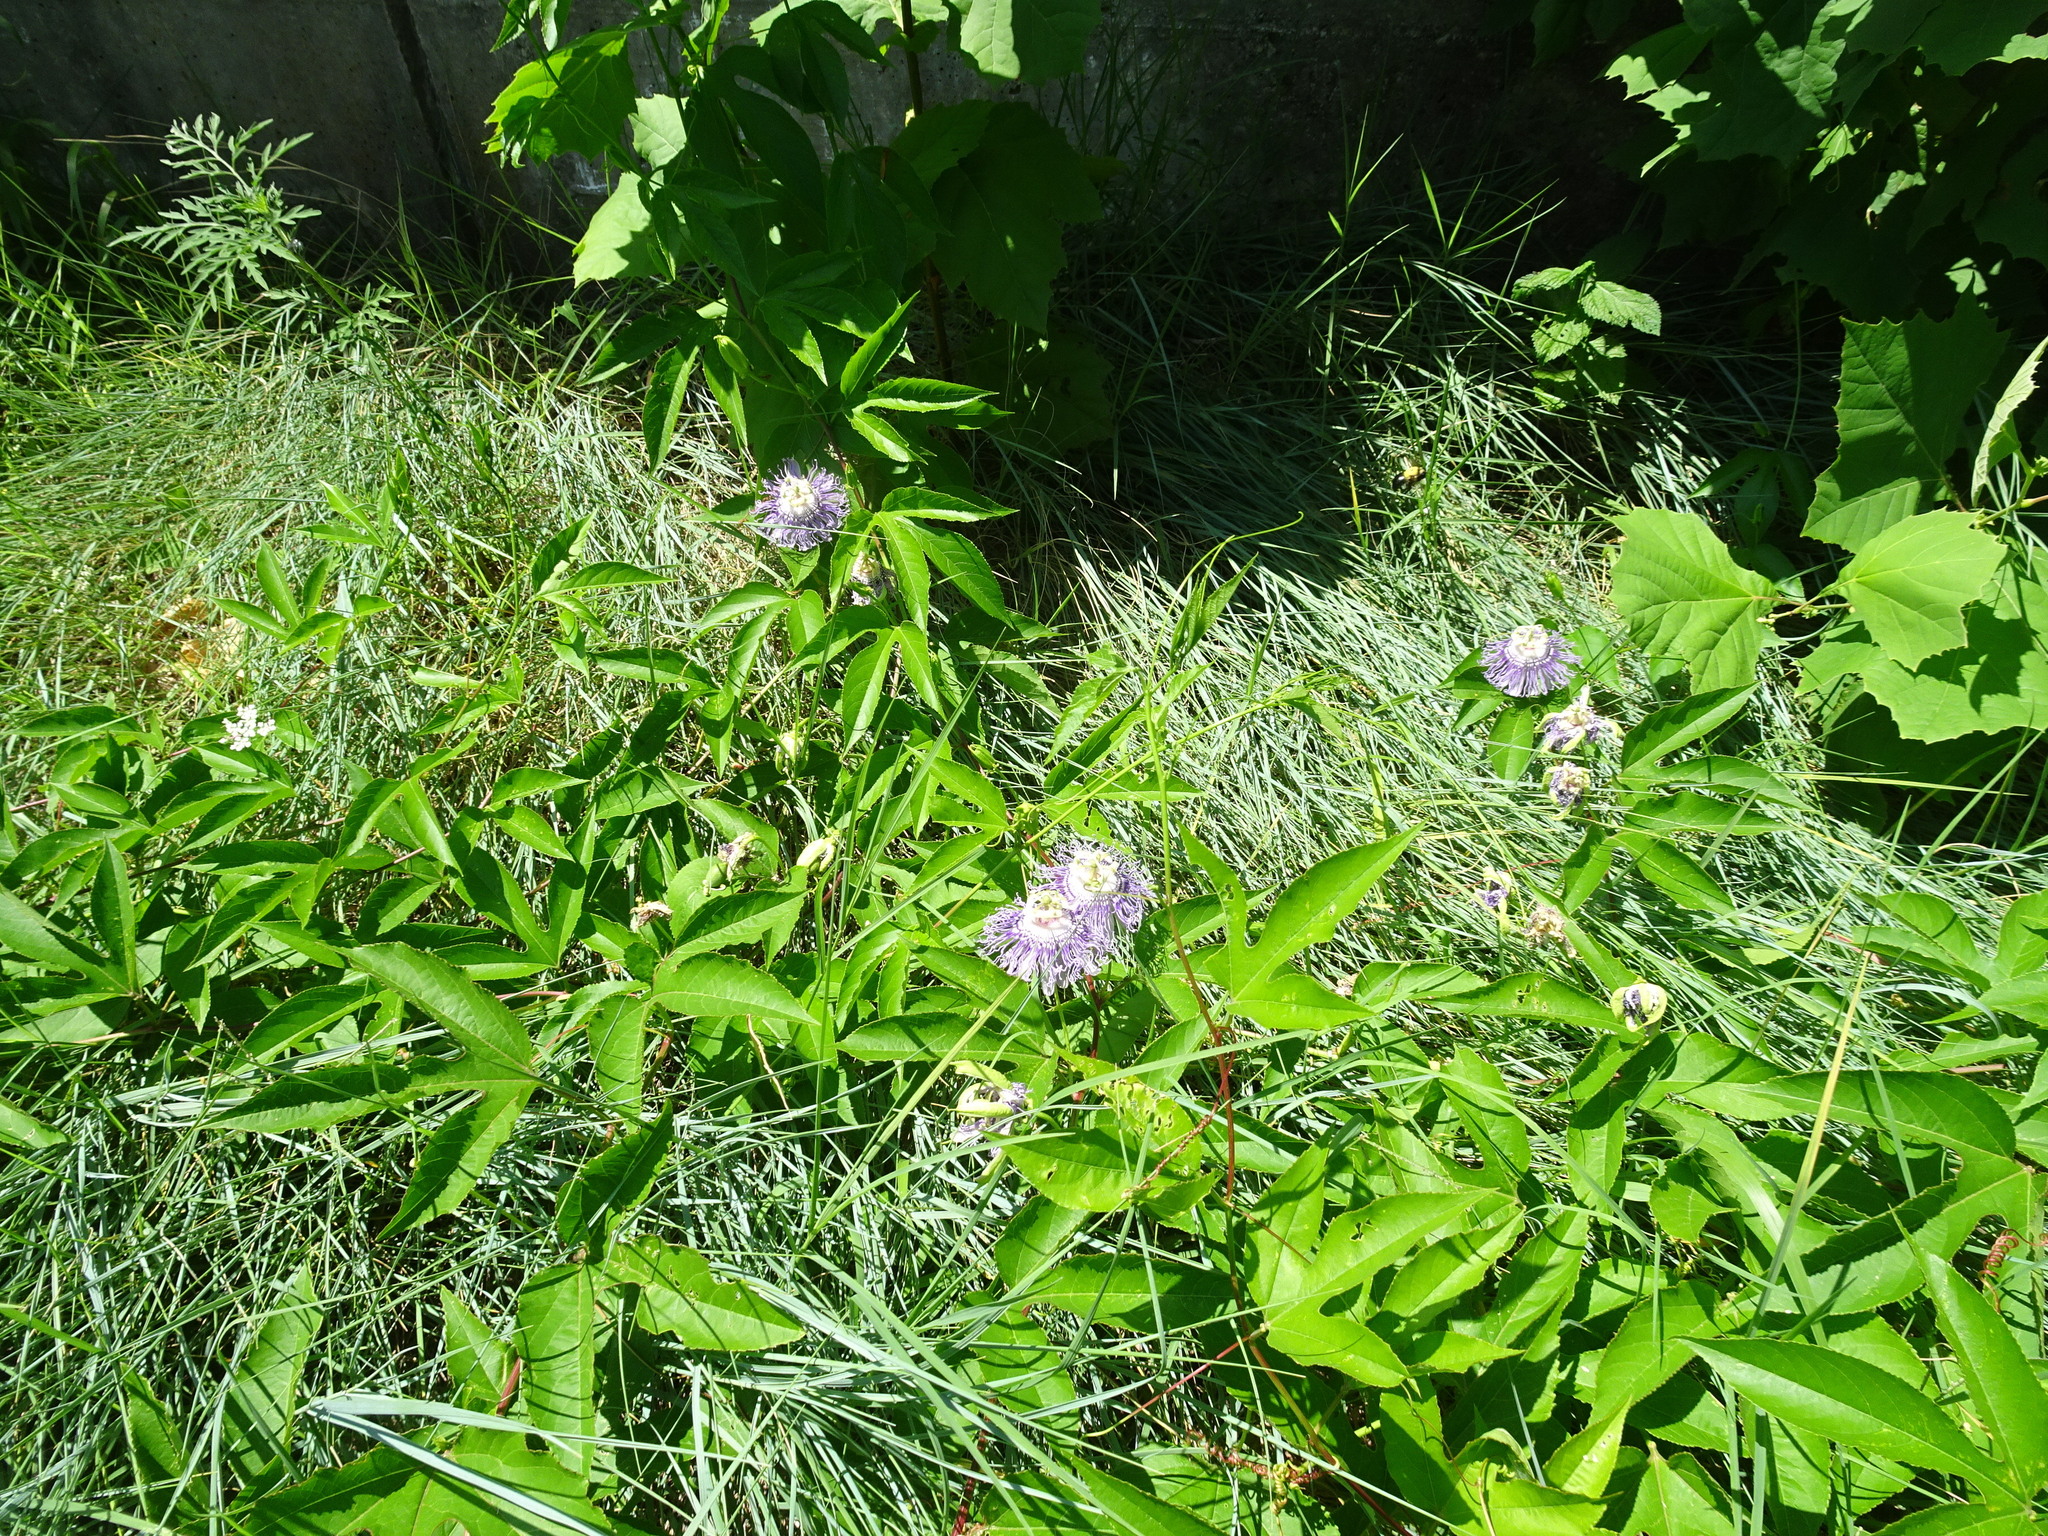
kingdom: Plantae
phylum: Tracheophyta
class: Magnoliopsida
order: Malpighiales
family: Passifloraceae
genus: Passiflora
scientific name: Passiflora incarnata
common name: Apricot-vine
